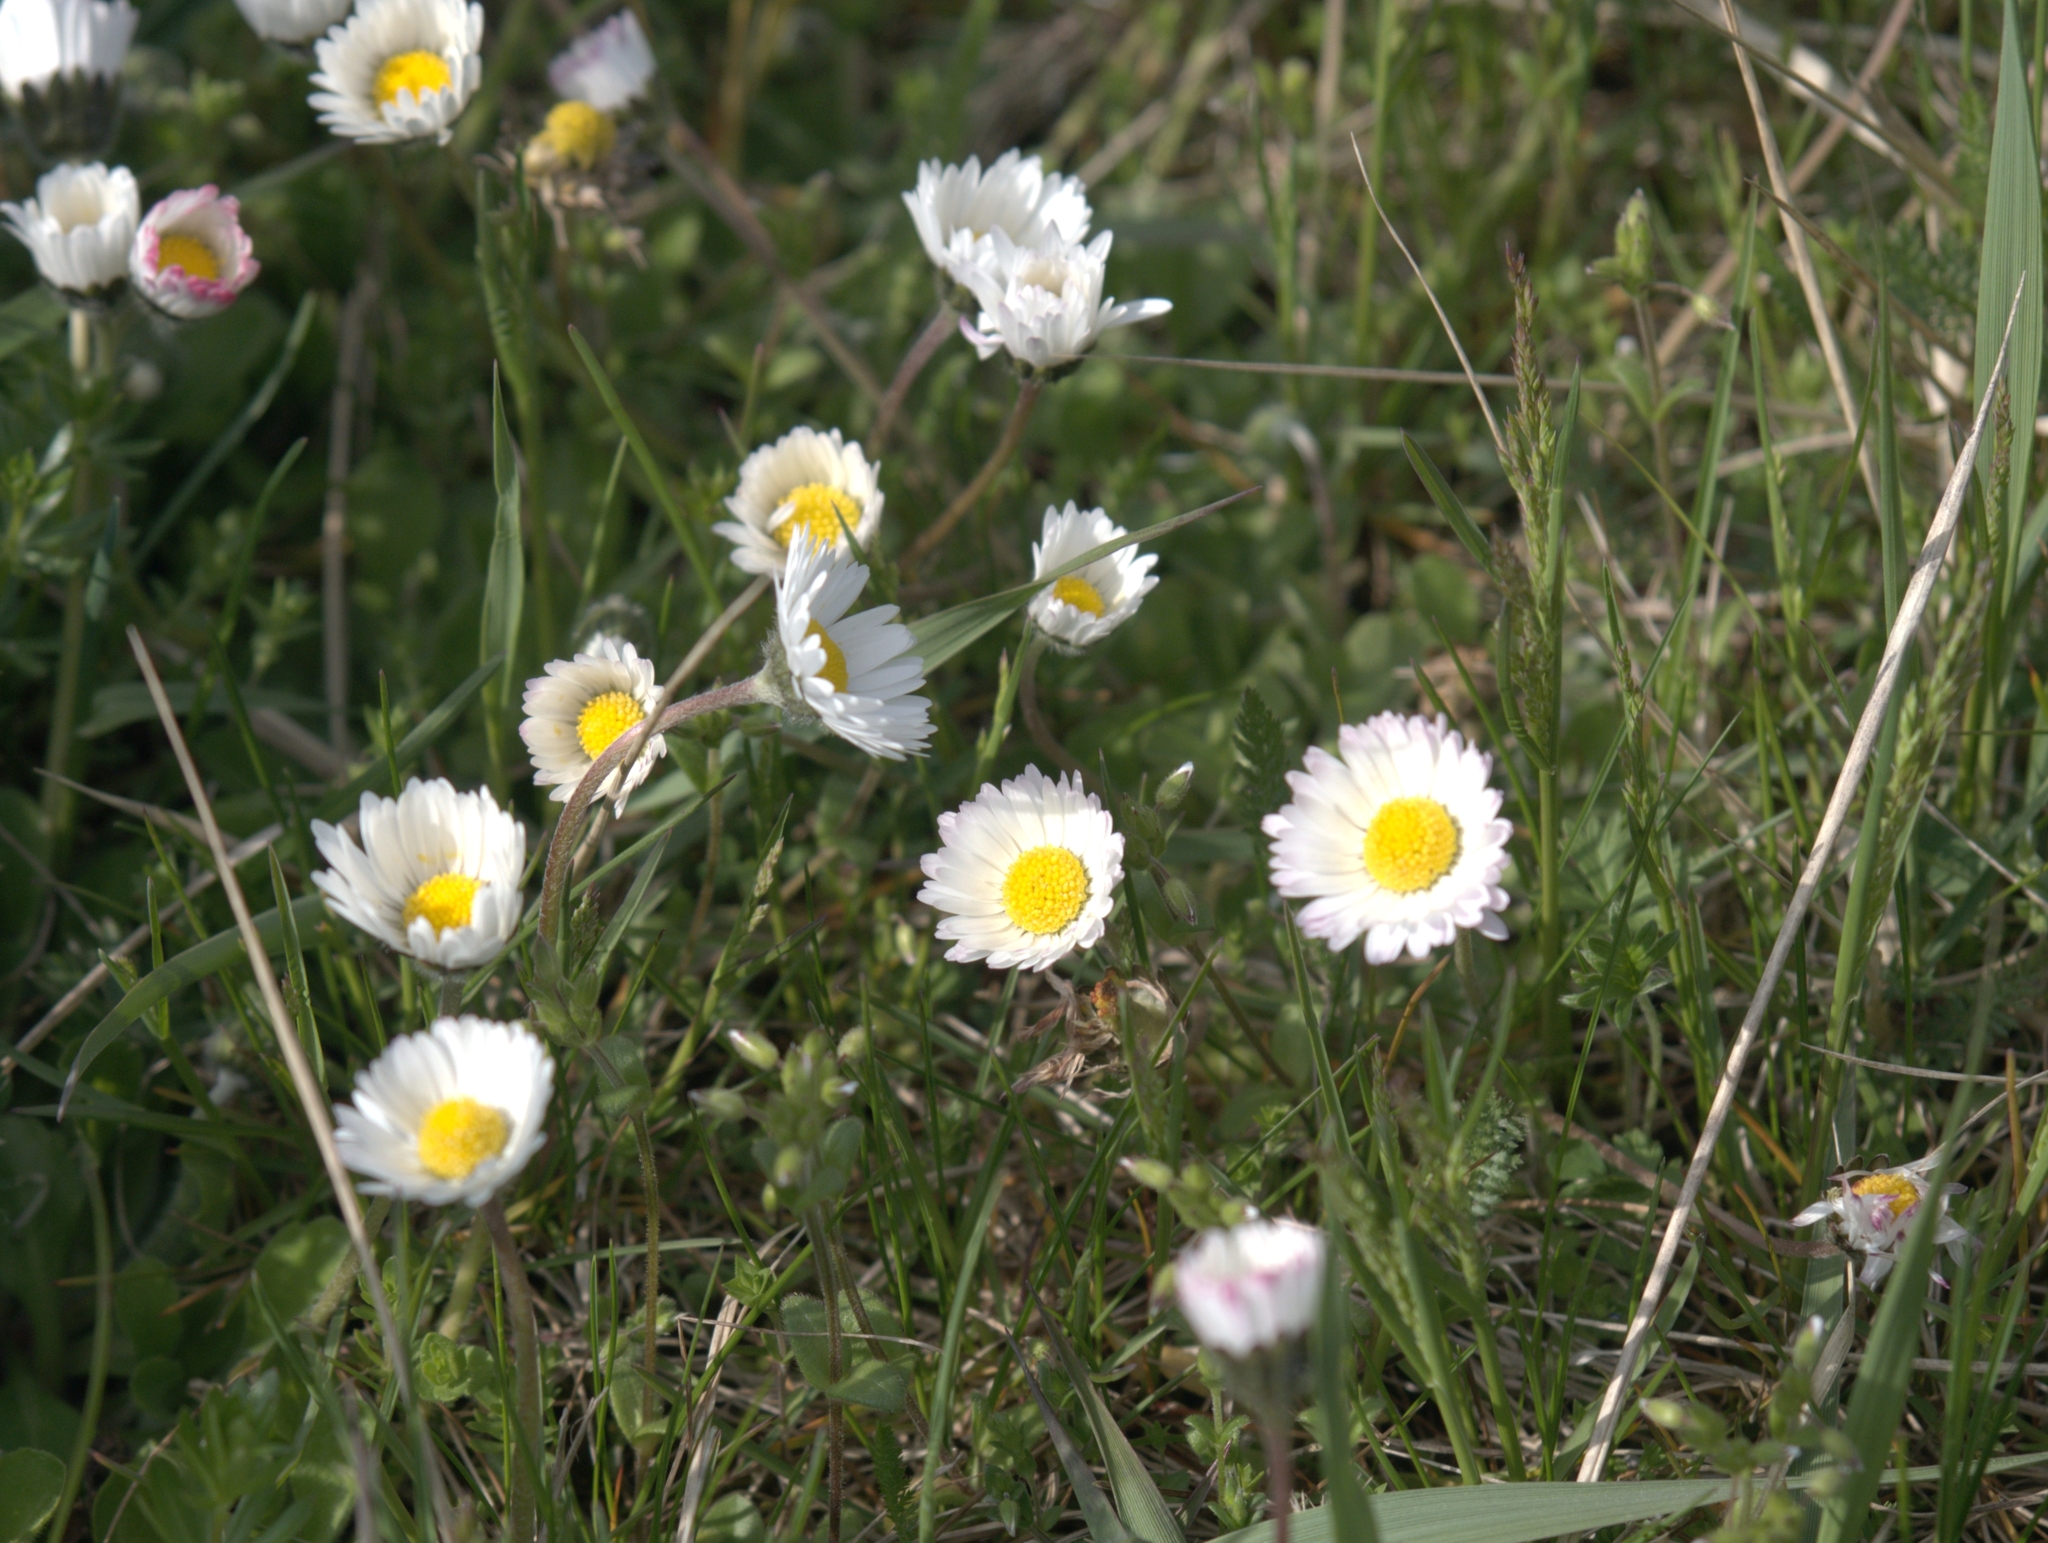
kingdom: Plantae
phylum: Tracheophyta
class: Magnoliopsida
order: Asterales
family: Asteraceae
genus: Bellis
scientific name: Bellis perennis
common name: Lawndaisy
